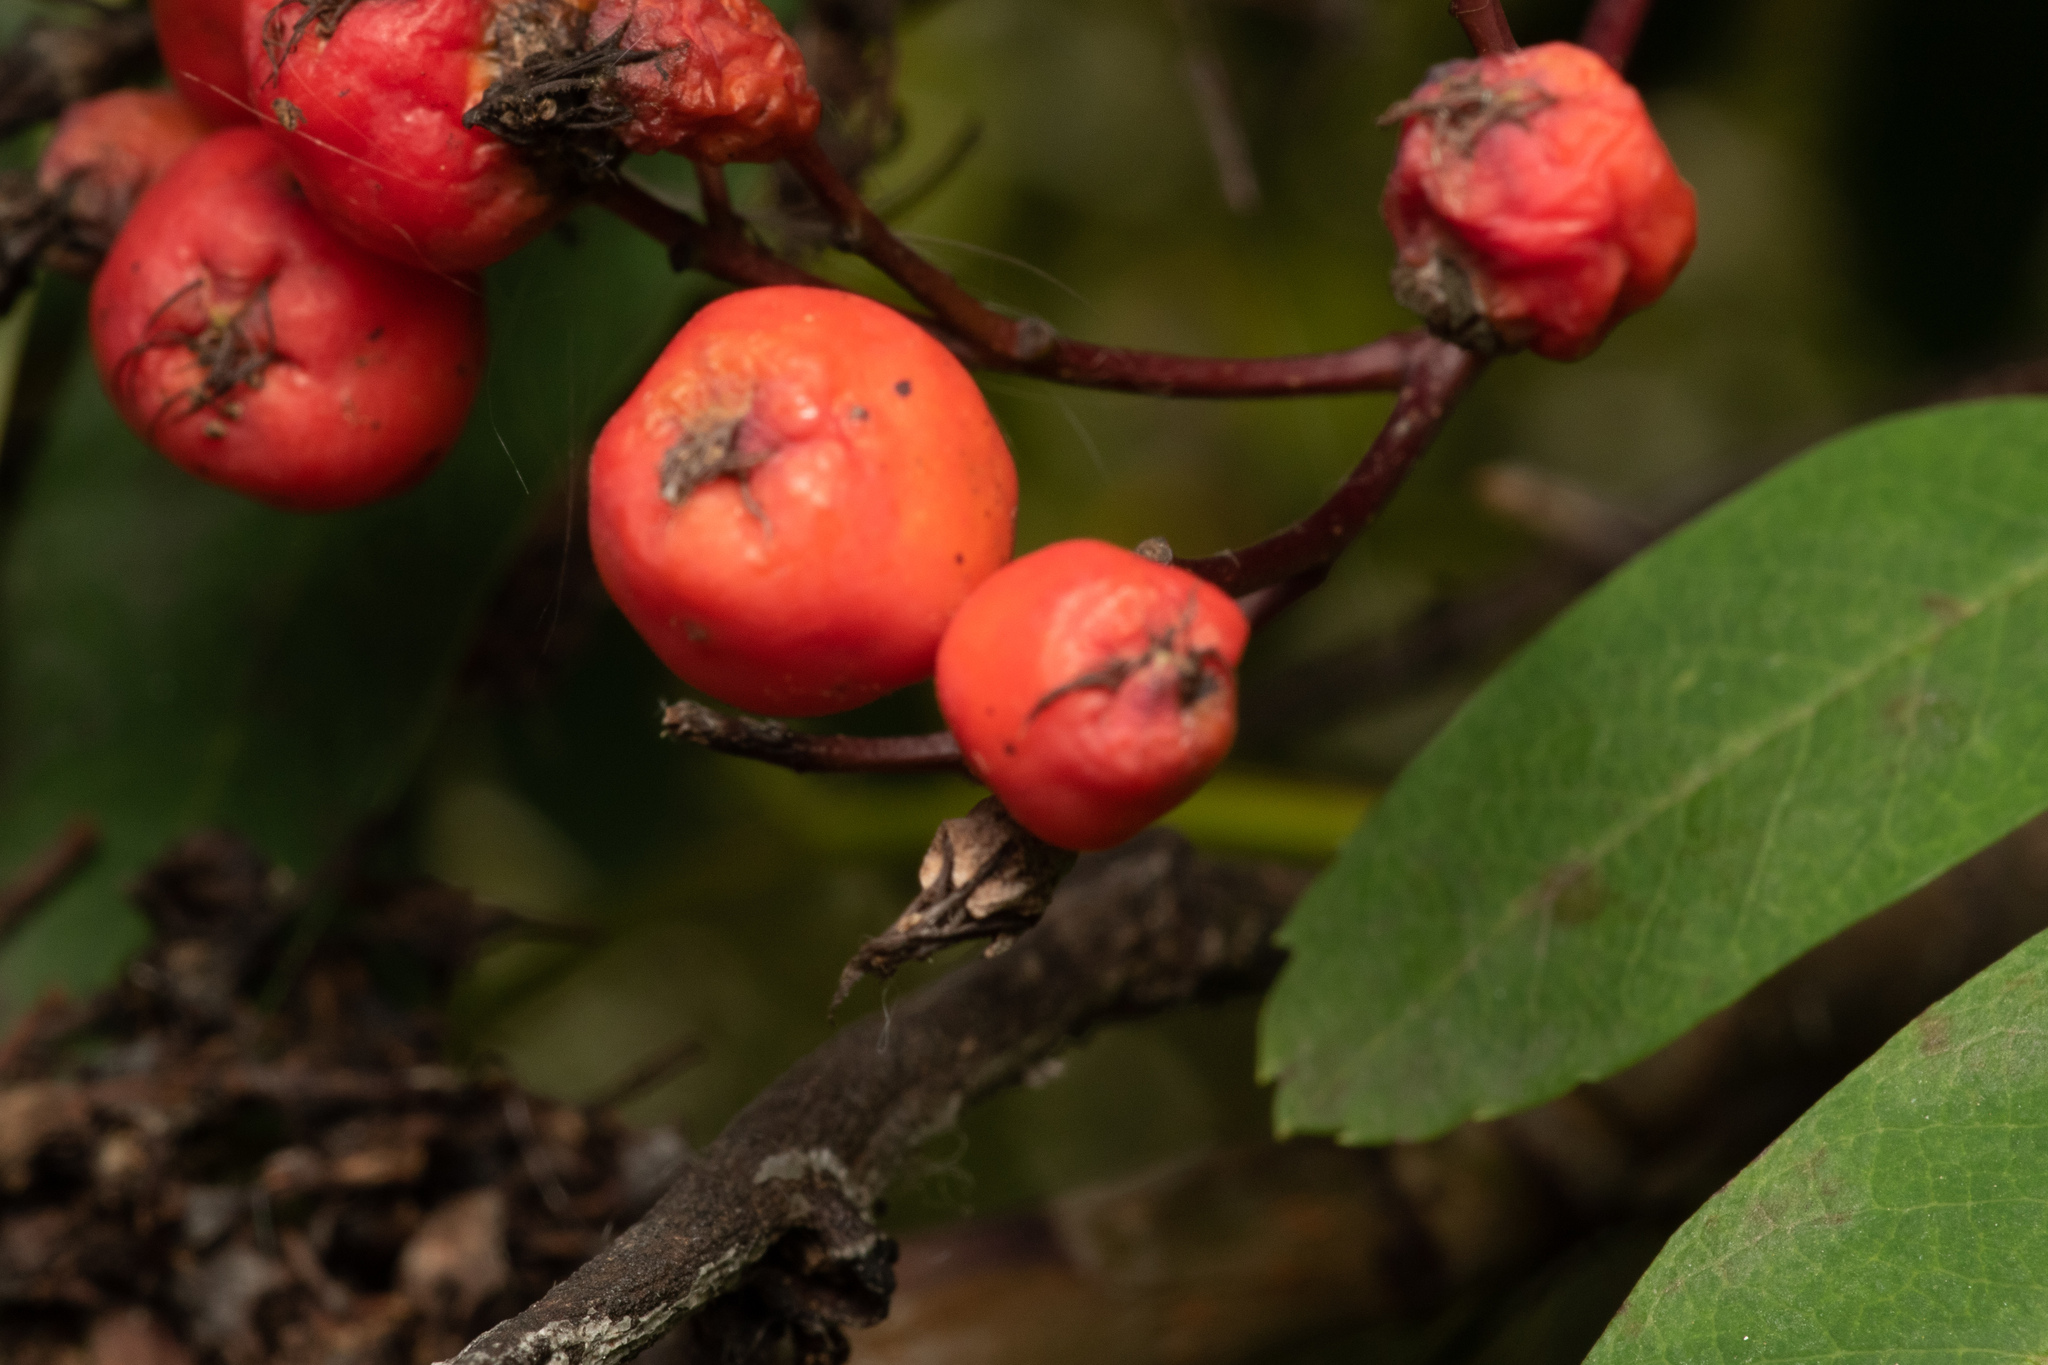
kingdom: Plantae
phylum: Tracheophyta
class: Magnoliopsida
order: Rosales
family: Rosaceae
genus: Sorbus
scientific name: Sorbus aucuparia
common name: Rowan
